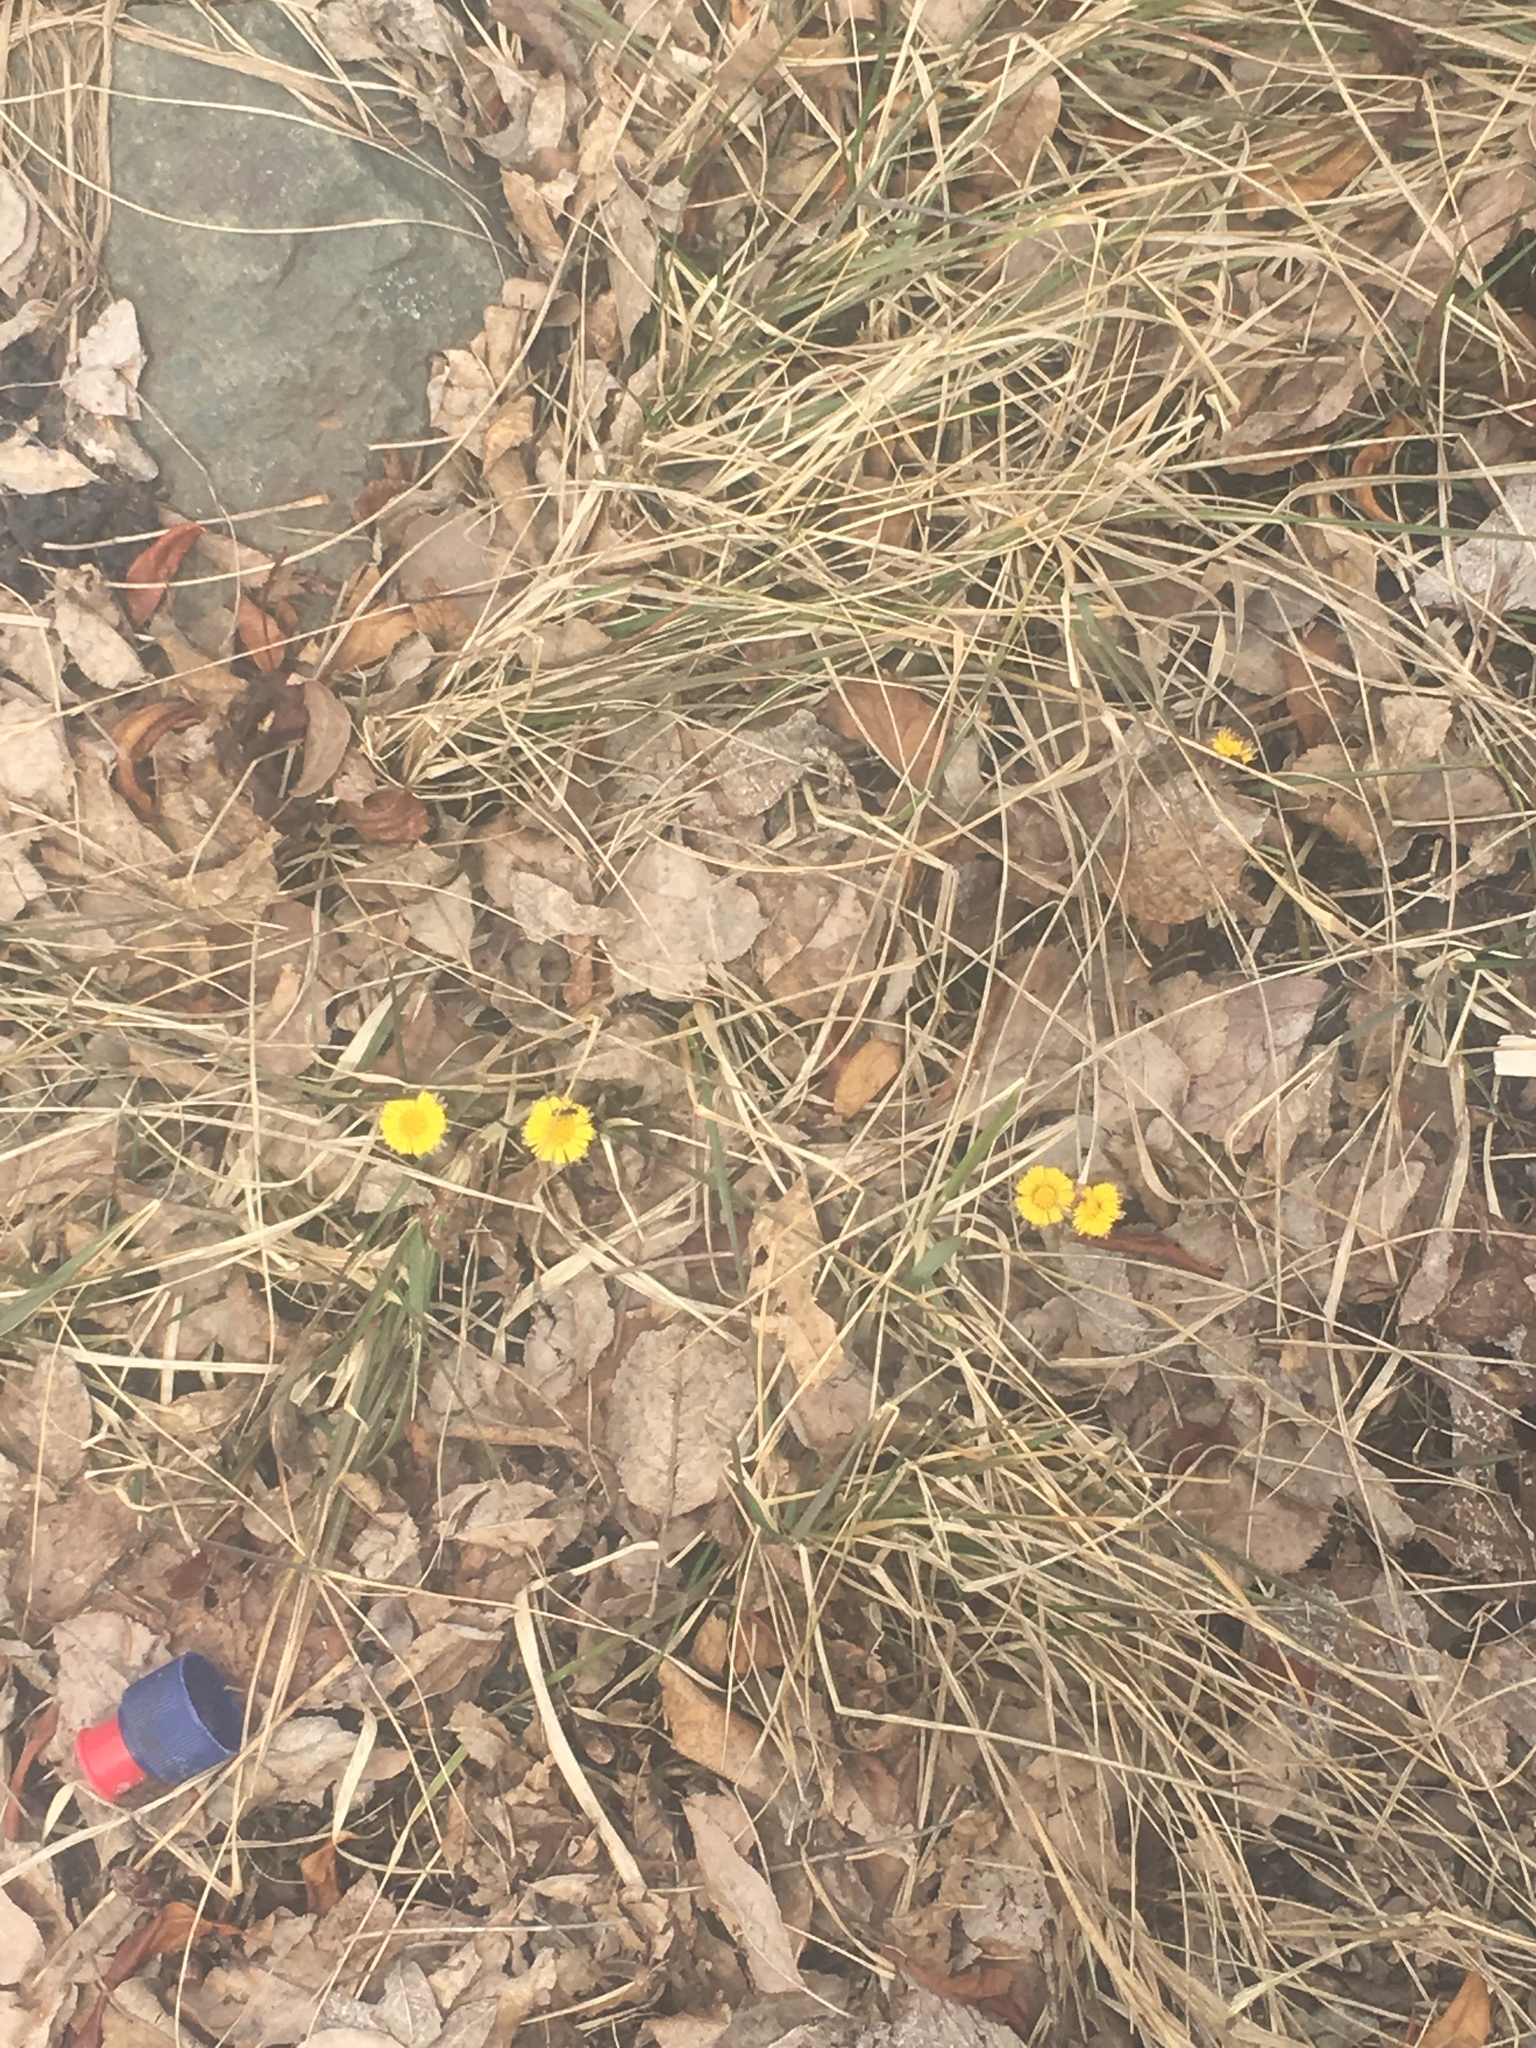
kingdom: Plantae
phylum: Tracheophyta
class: Magnoliopsida
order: Asterales
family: Asteraceae
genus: Tussilago
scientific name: Tussilago farfara
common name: Coltsfoot
